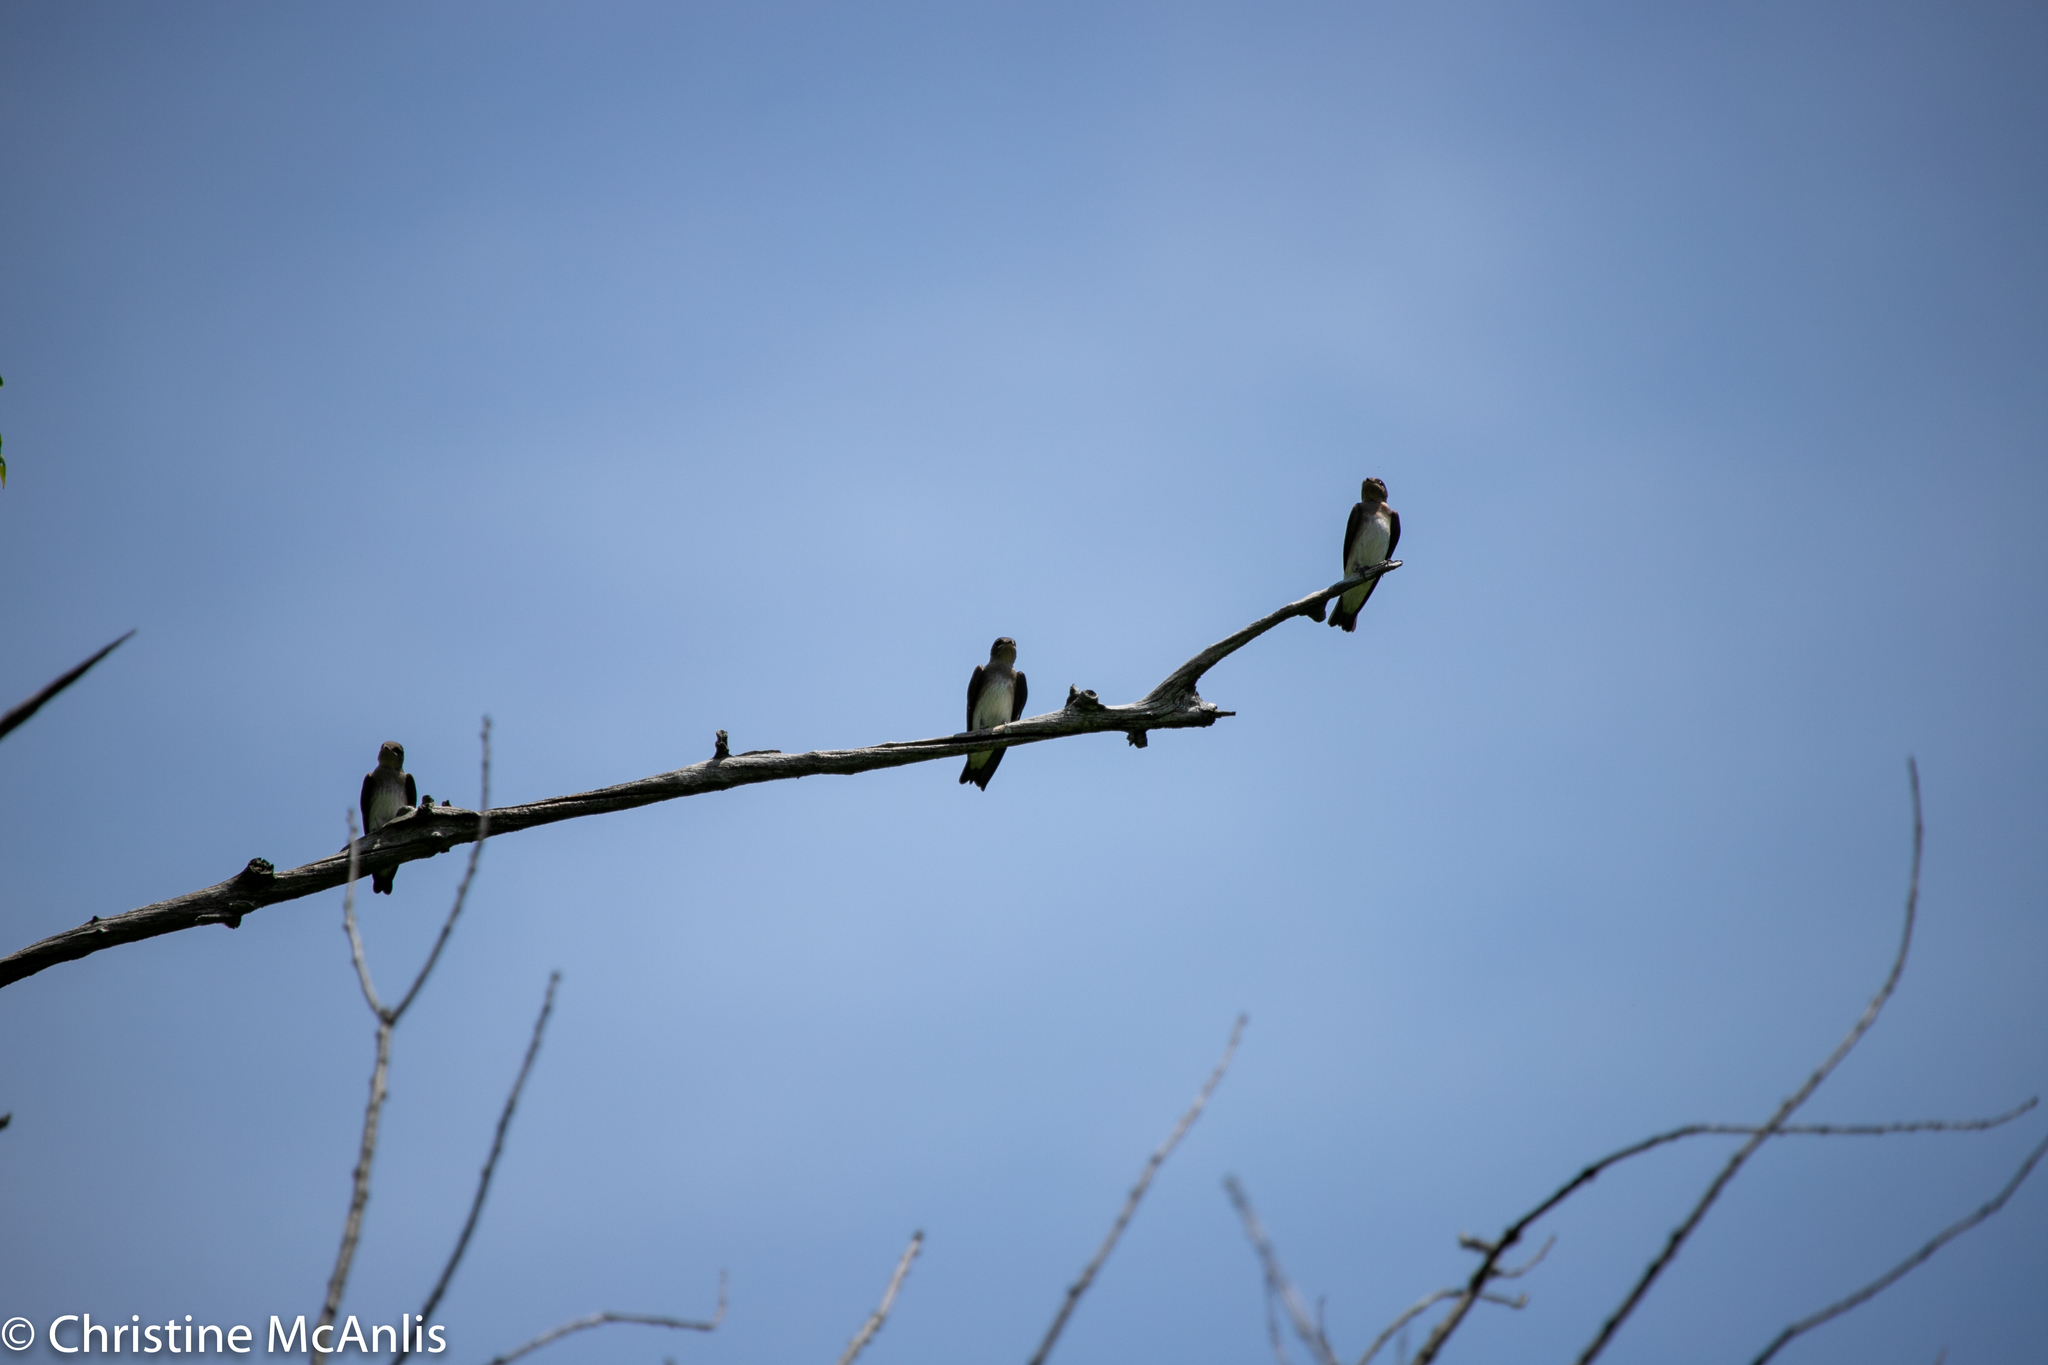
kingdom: Animalia
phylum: Chordata
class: Aves
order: Passeriformes
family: Hirundinidae
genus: Stelgidopteryx
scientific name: Stelgidopteryx serripennis
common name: Northern rough-winged swallow
